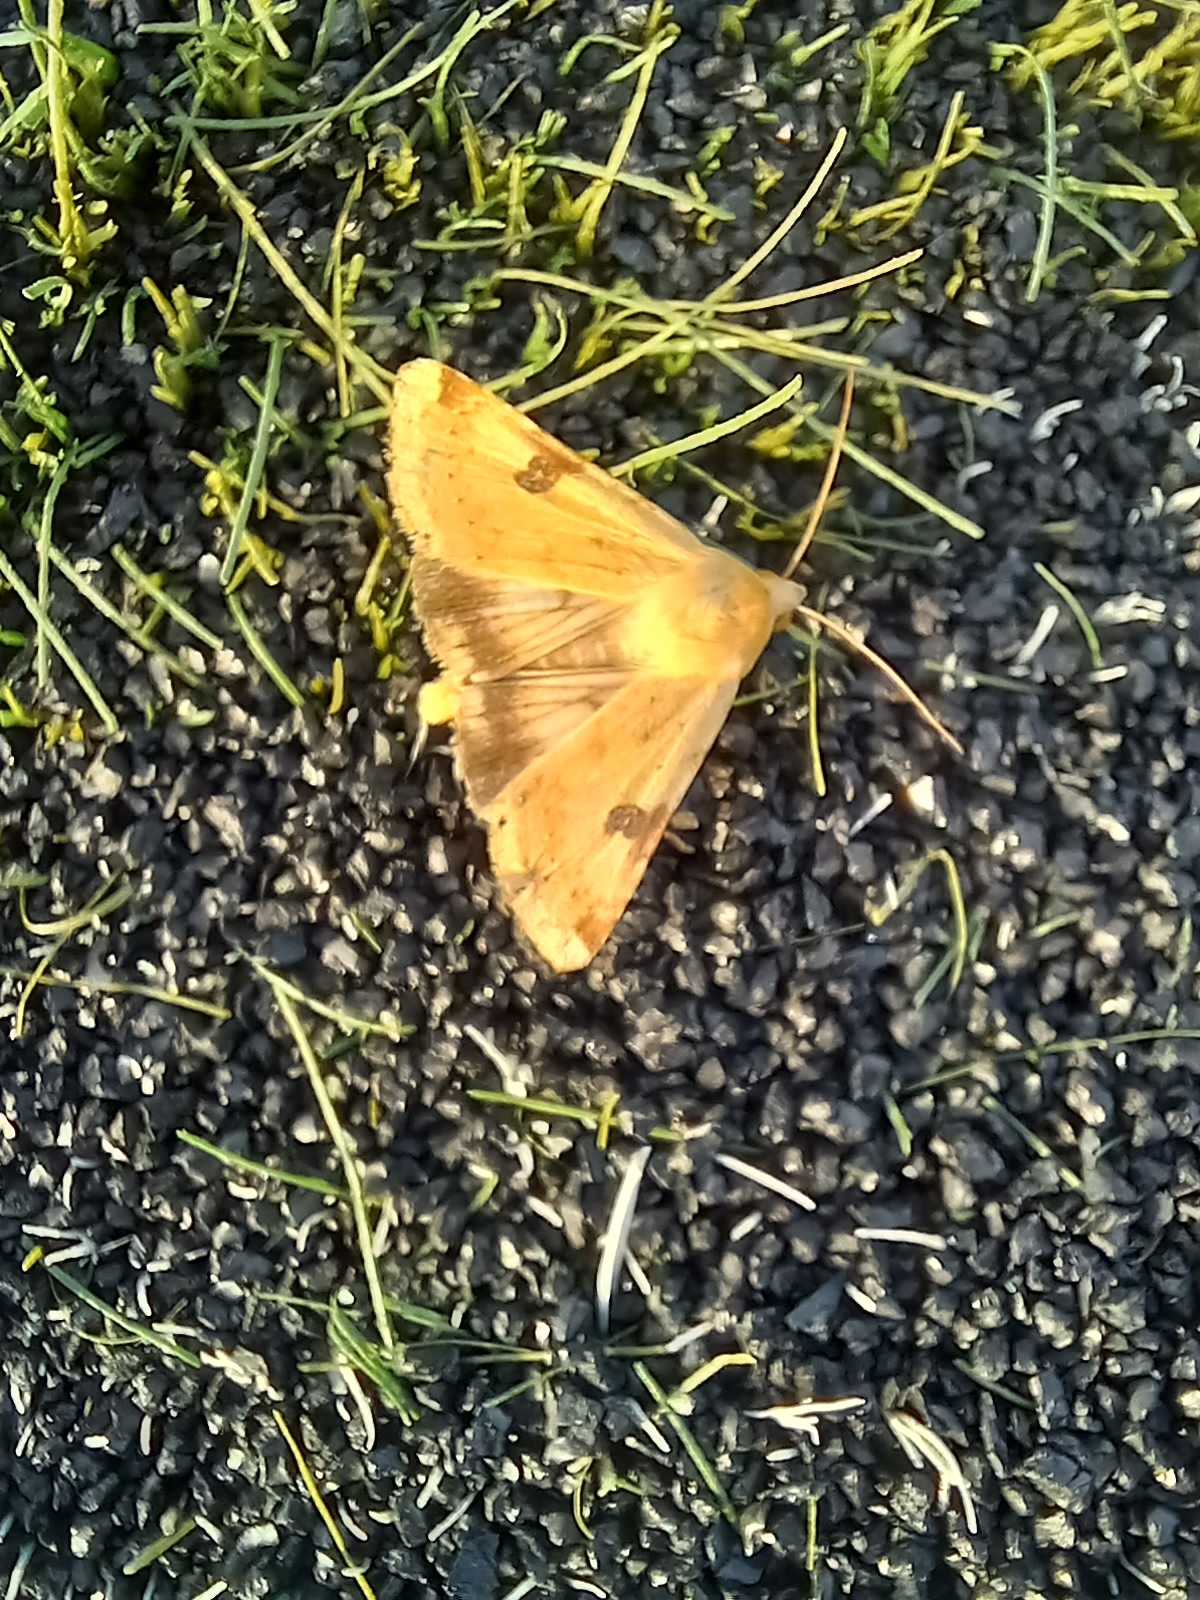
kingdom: Animalia
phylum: Arthropoda
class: Insecta
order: Lepidoptera
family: Noctuidae
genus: Heliothis
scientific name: Heliothis peltigera
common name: Bordered straw
